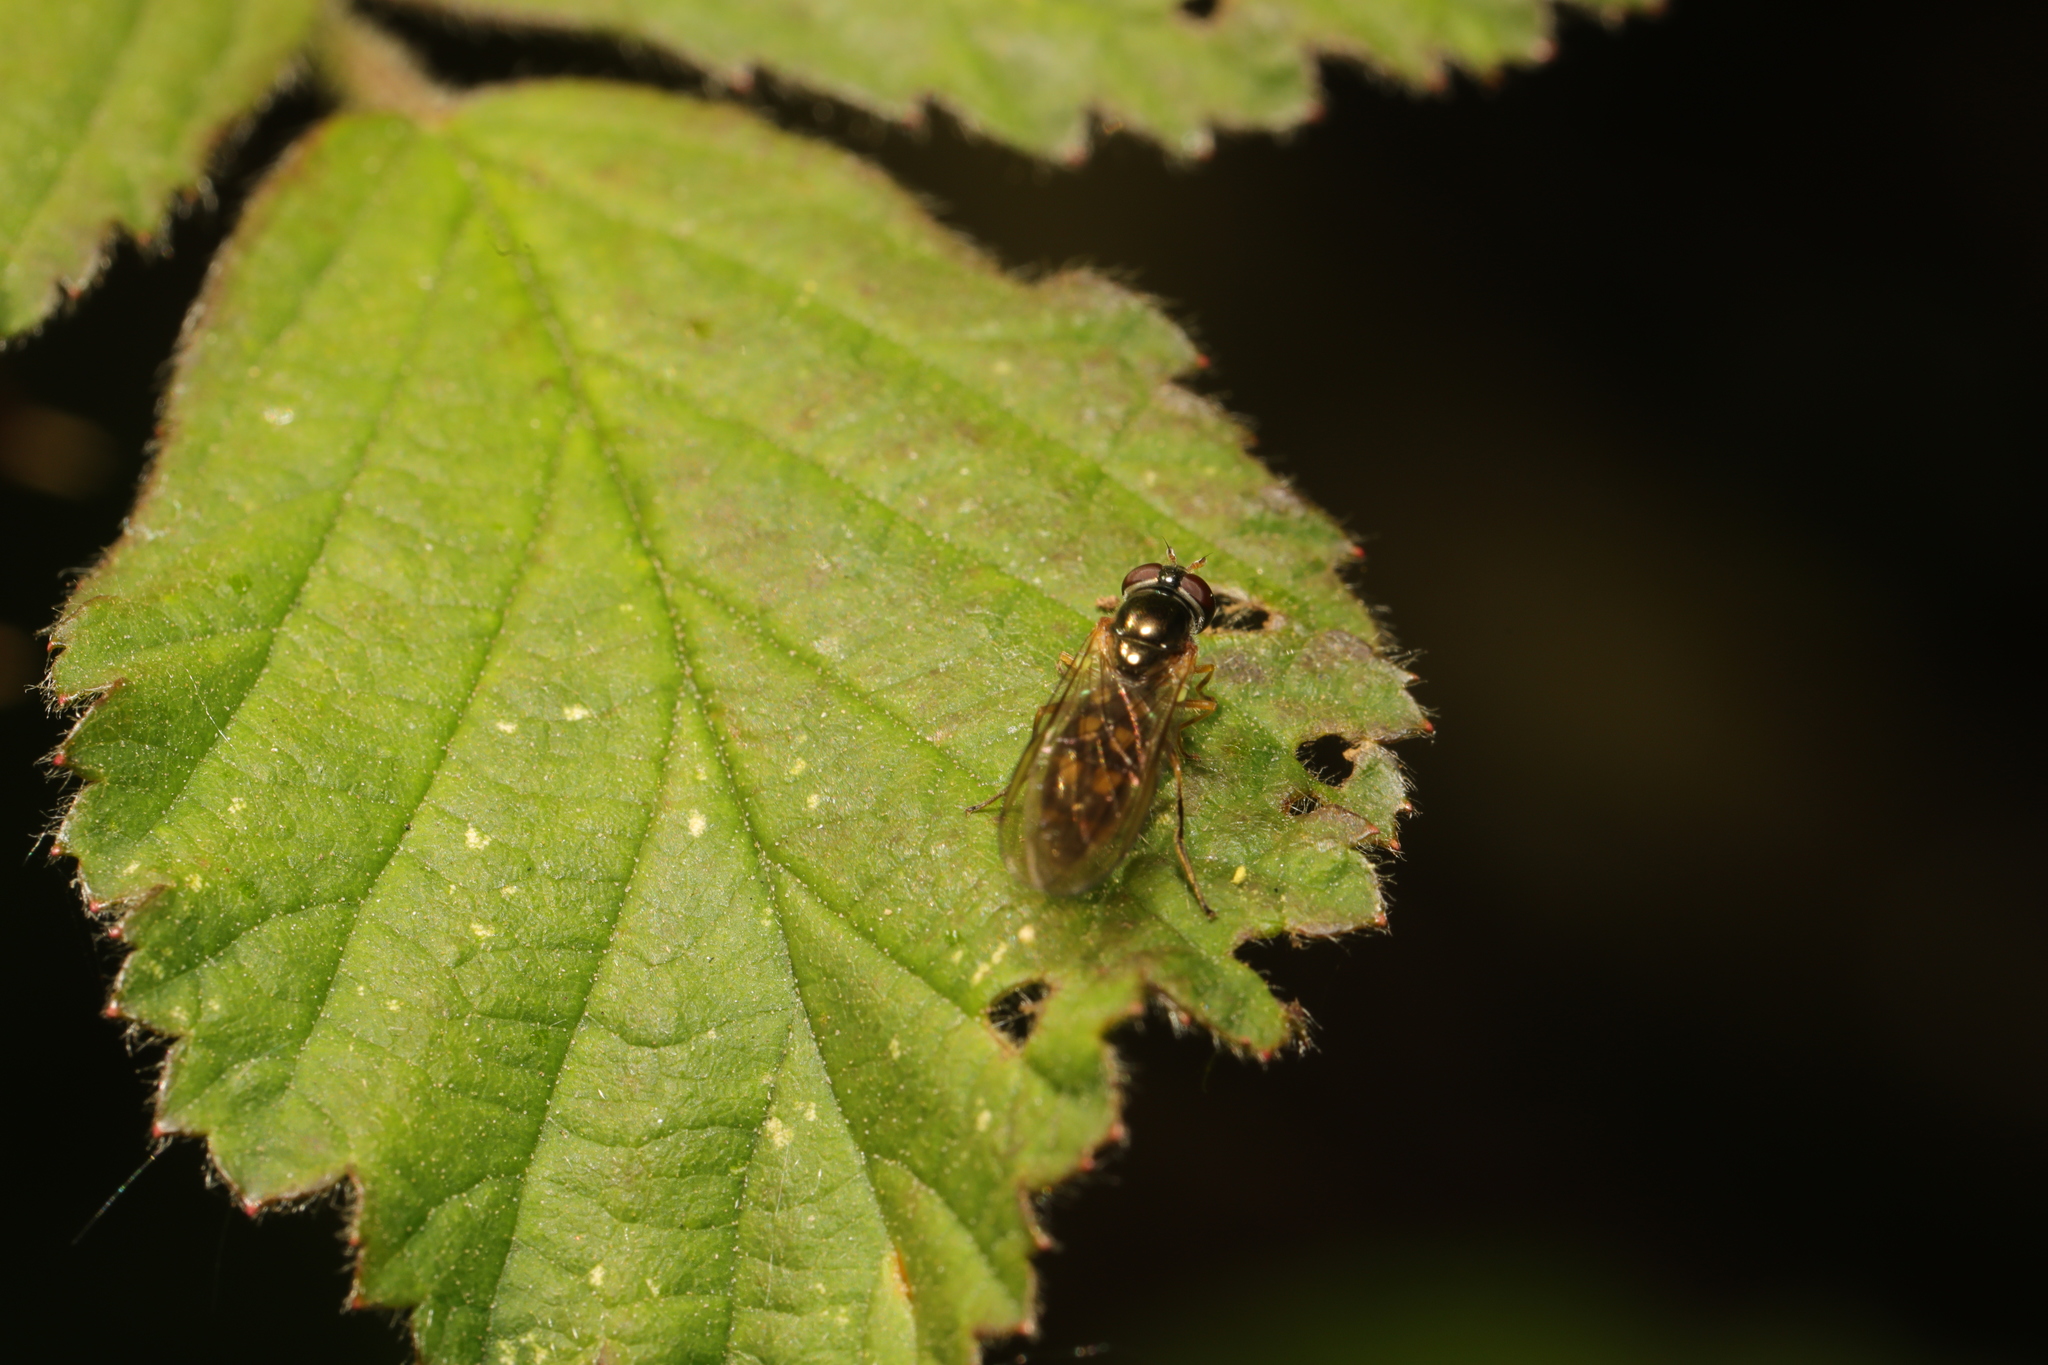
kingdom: Animalia
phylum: Arthropoda
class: Insecta
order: Diptera
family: Syrphidae
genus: Melanostoma
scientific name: Melanostoma
